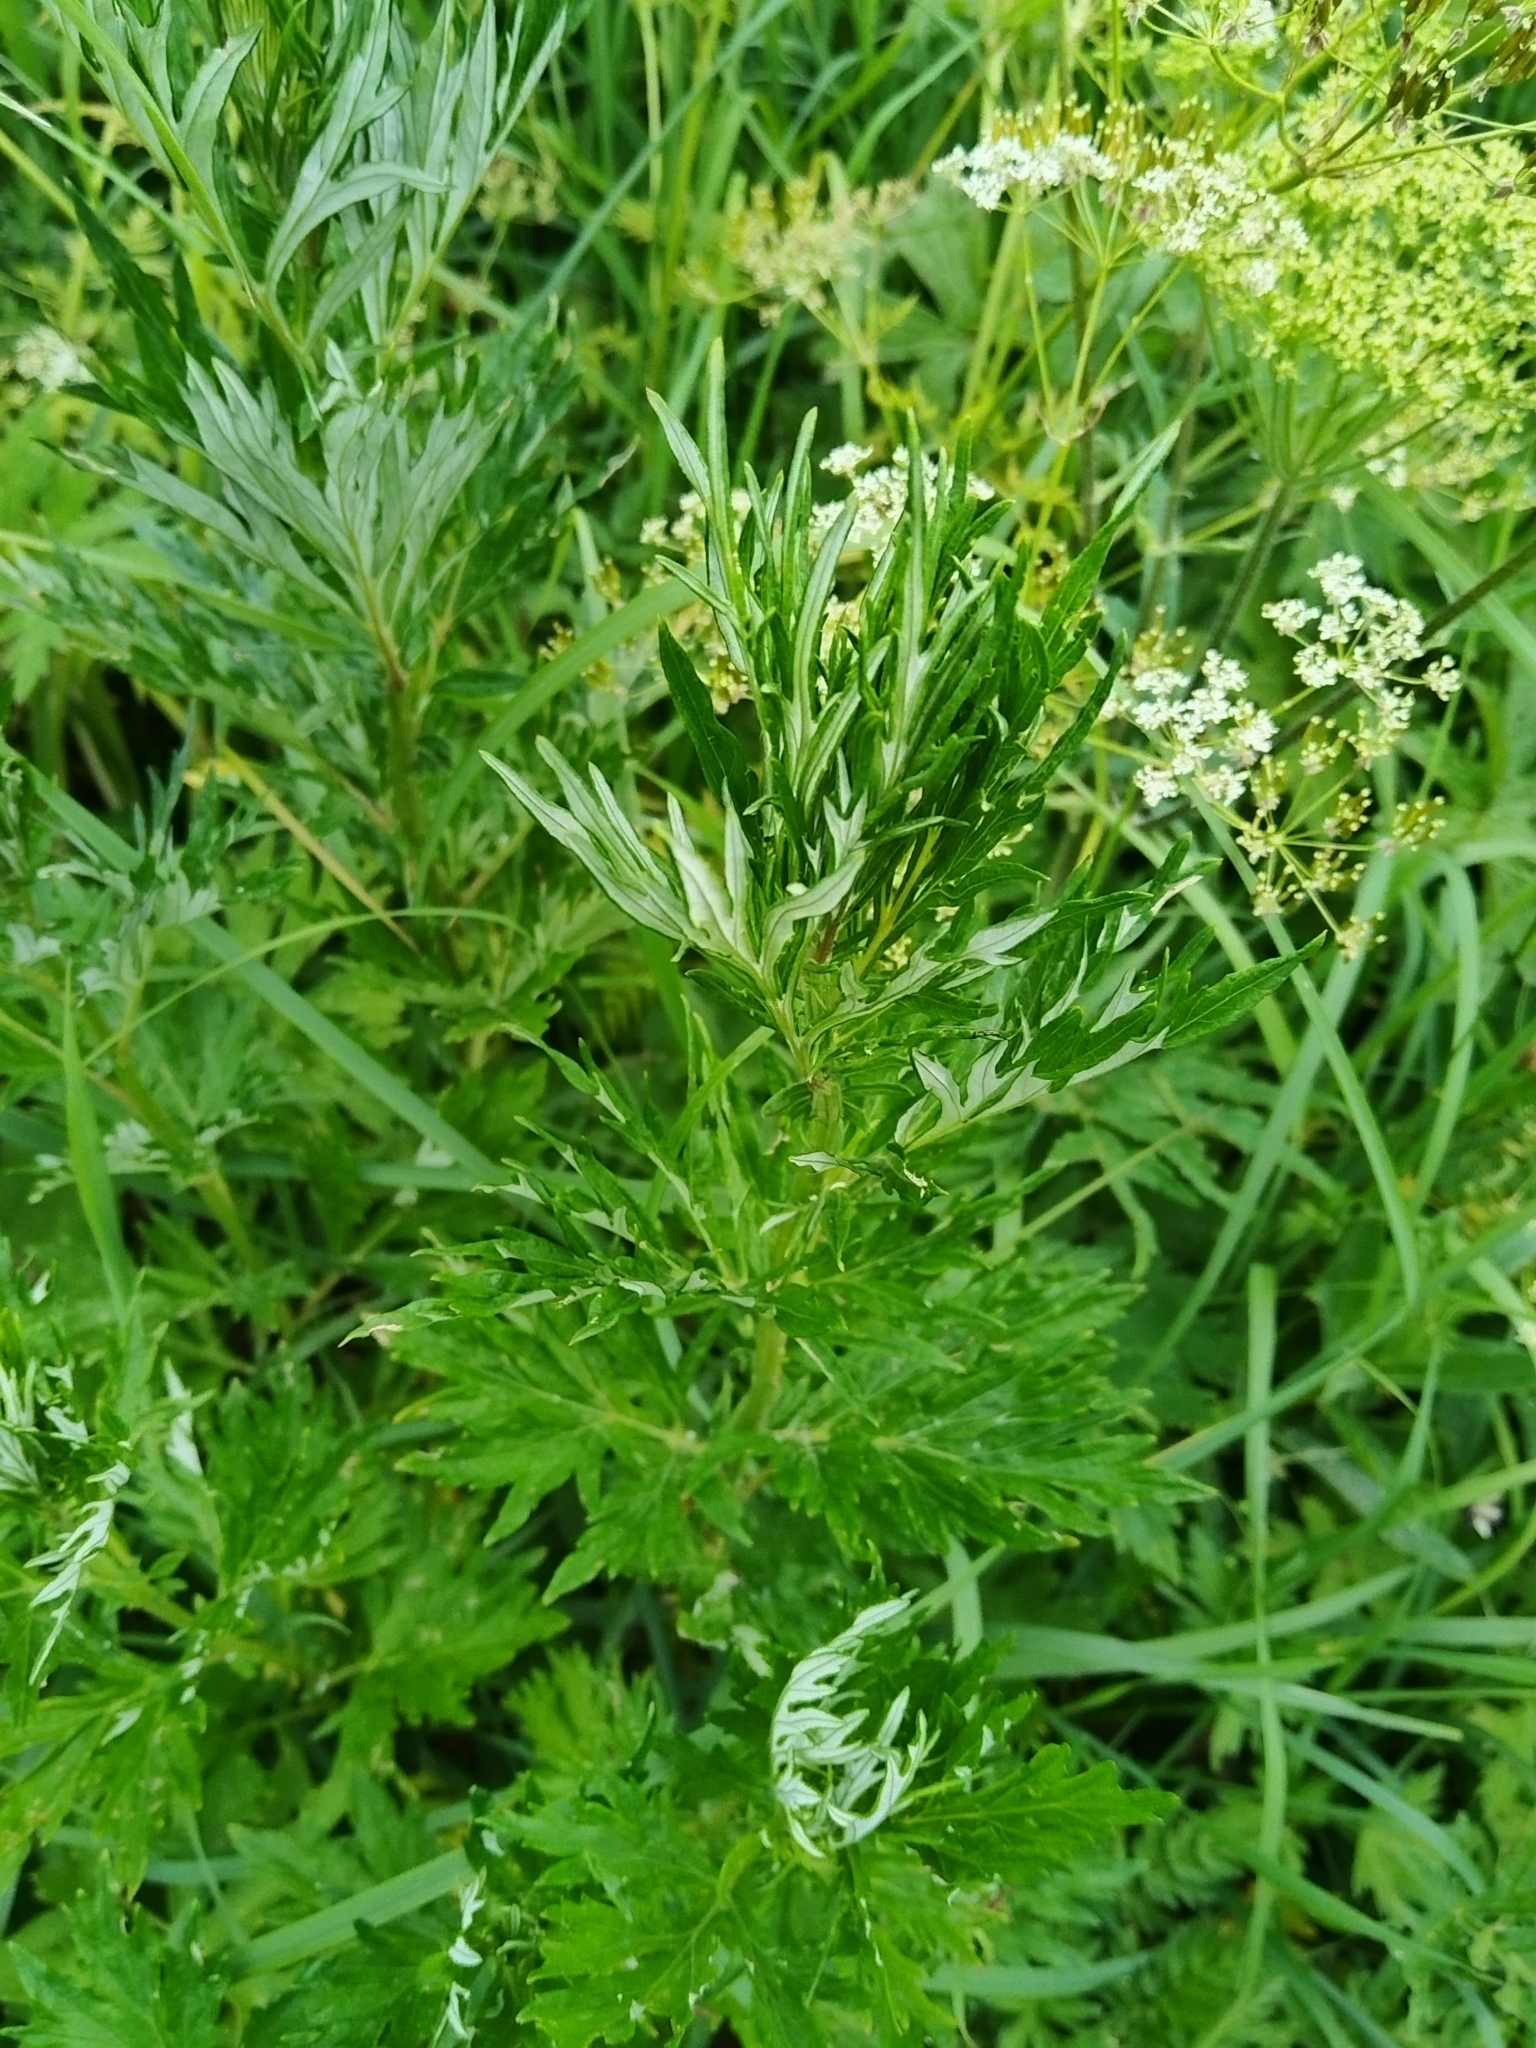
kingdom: Plantae
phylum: Tracheophyta
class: Magnoliopsida
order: Asterales
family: Asteraceae
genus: Artemisia
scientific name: Artemisia vulgaris
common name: Mugwort
